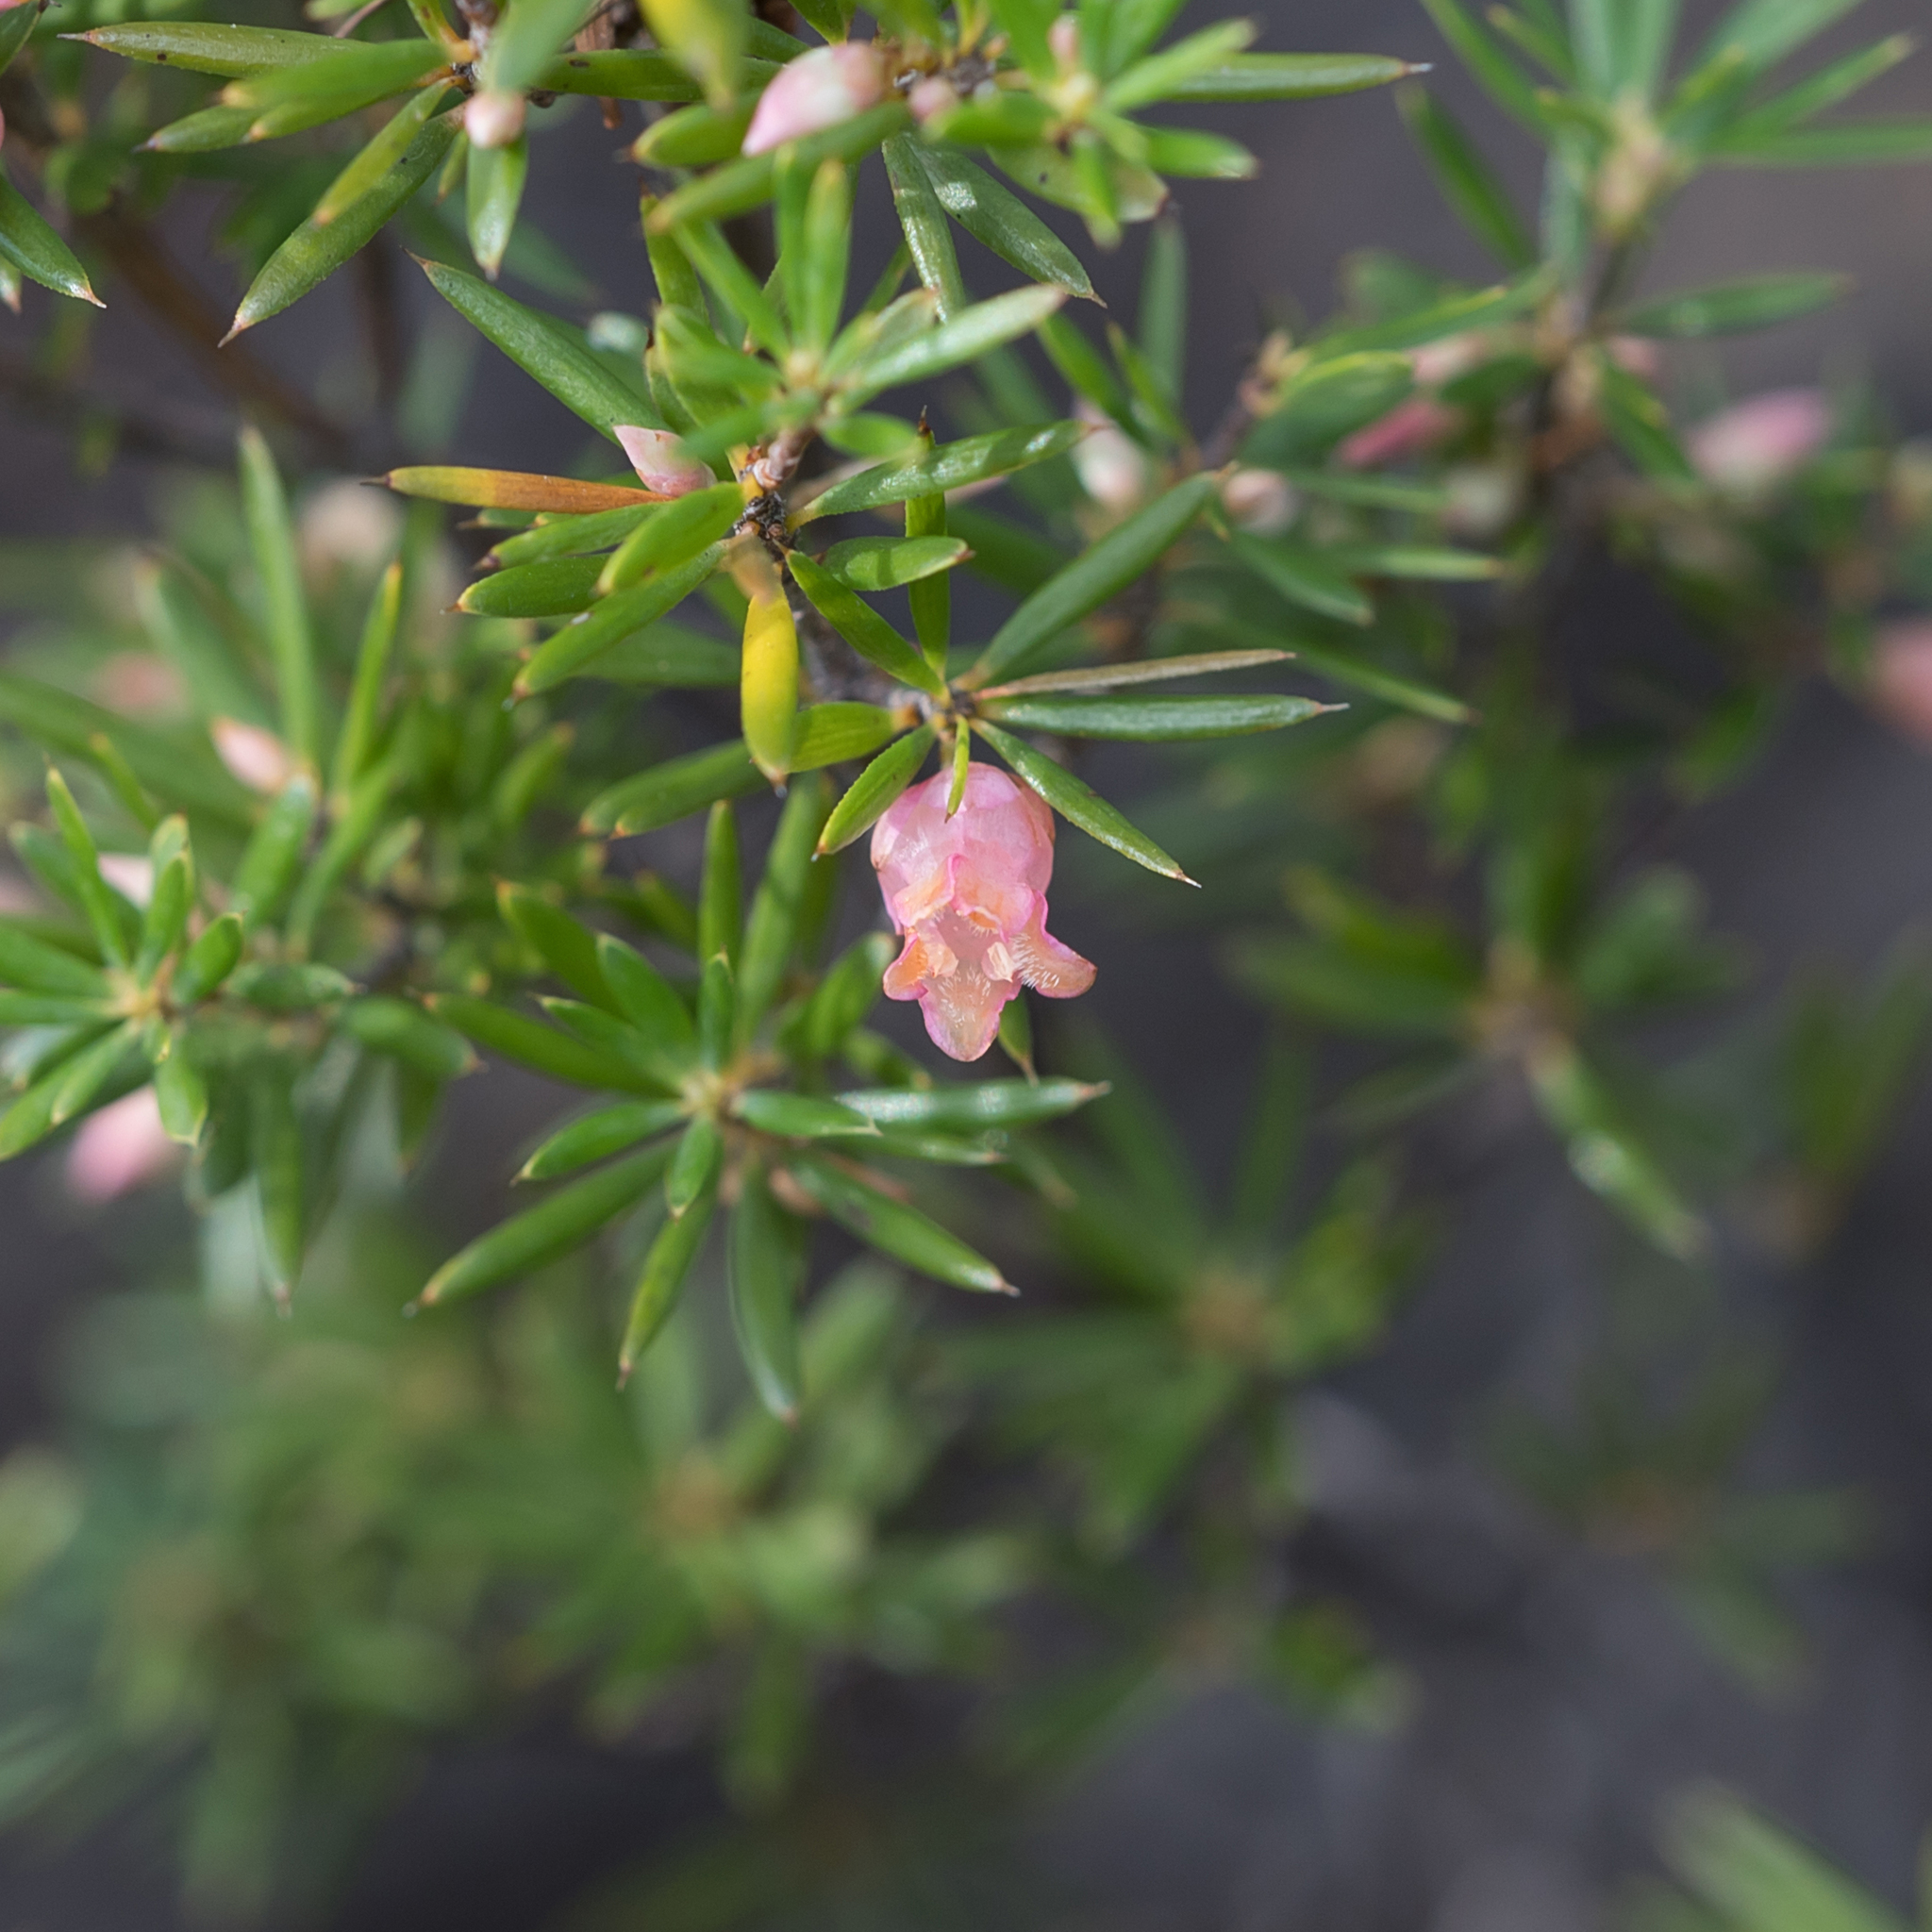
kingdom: Plantae
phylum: Tracheophyta
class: Magnoliopsida
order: Ericales
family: Ericaceae
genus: Brachyloma
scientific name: Brachyloma ericoides
